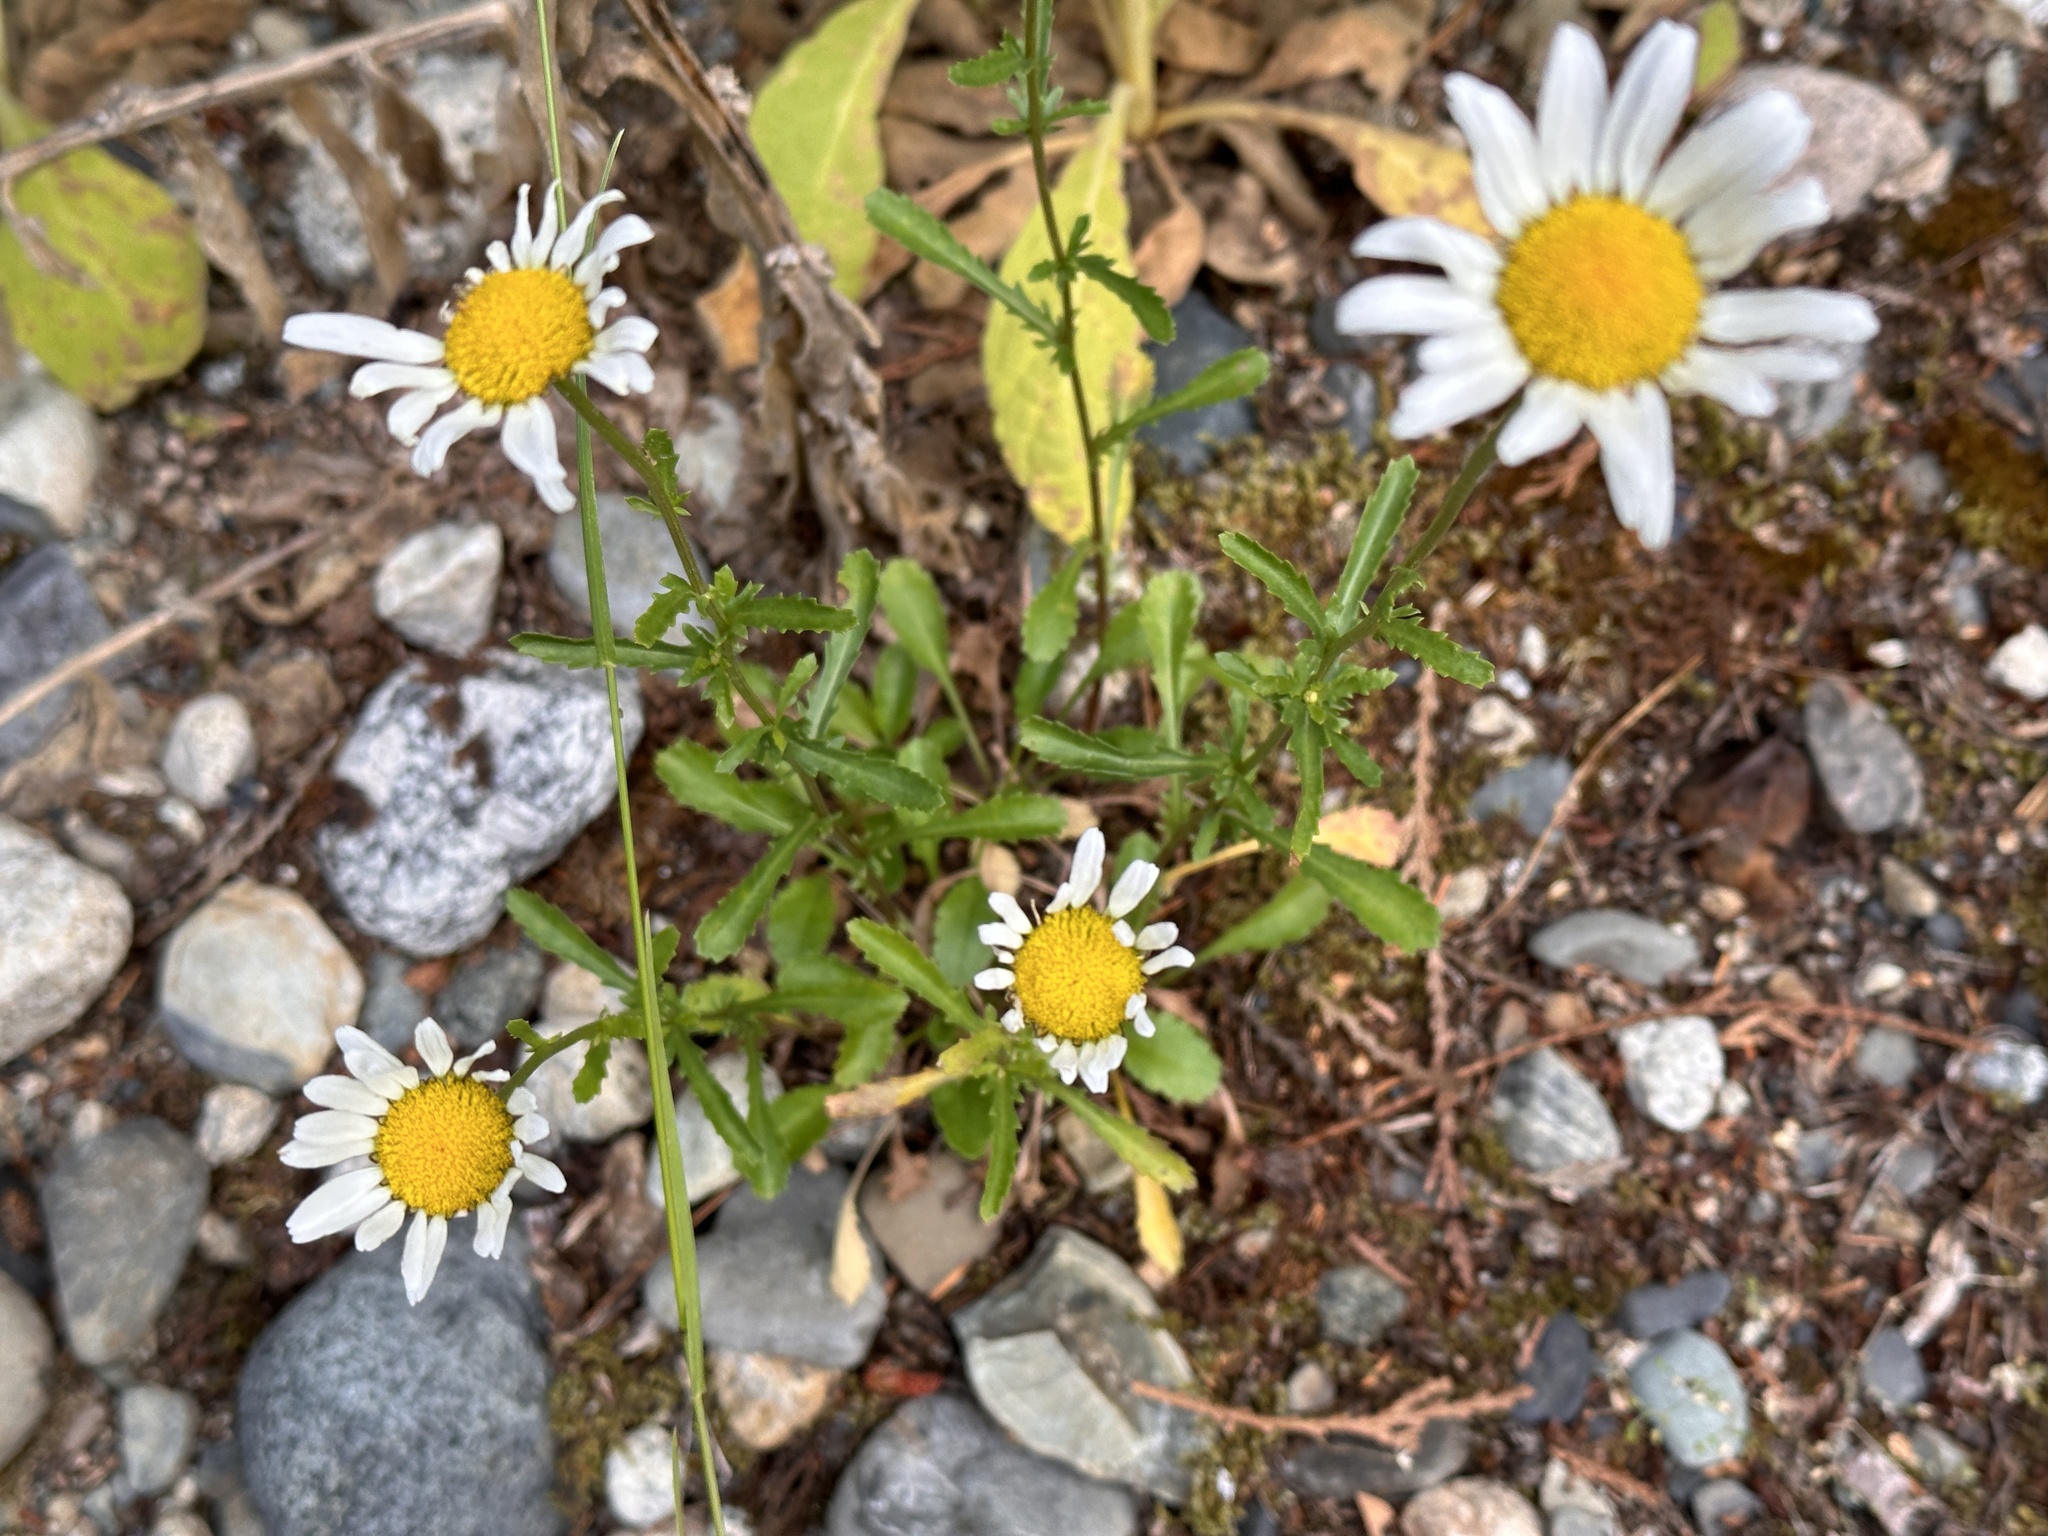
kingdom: Plantae
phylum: Tracheophyta
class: Magnoliopsida
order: Asterales
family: Asteraceae
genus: Leucanthemum
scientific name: Leucanthemum vulgare
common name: Oxeye daisy
